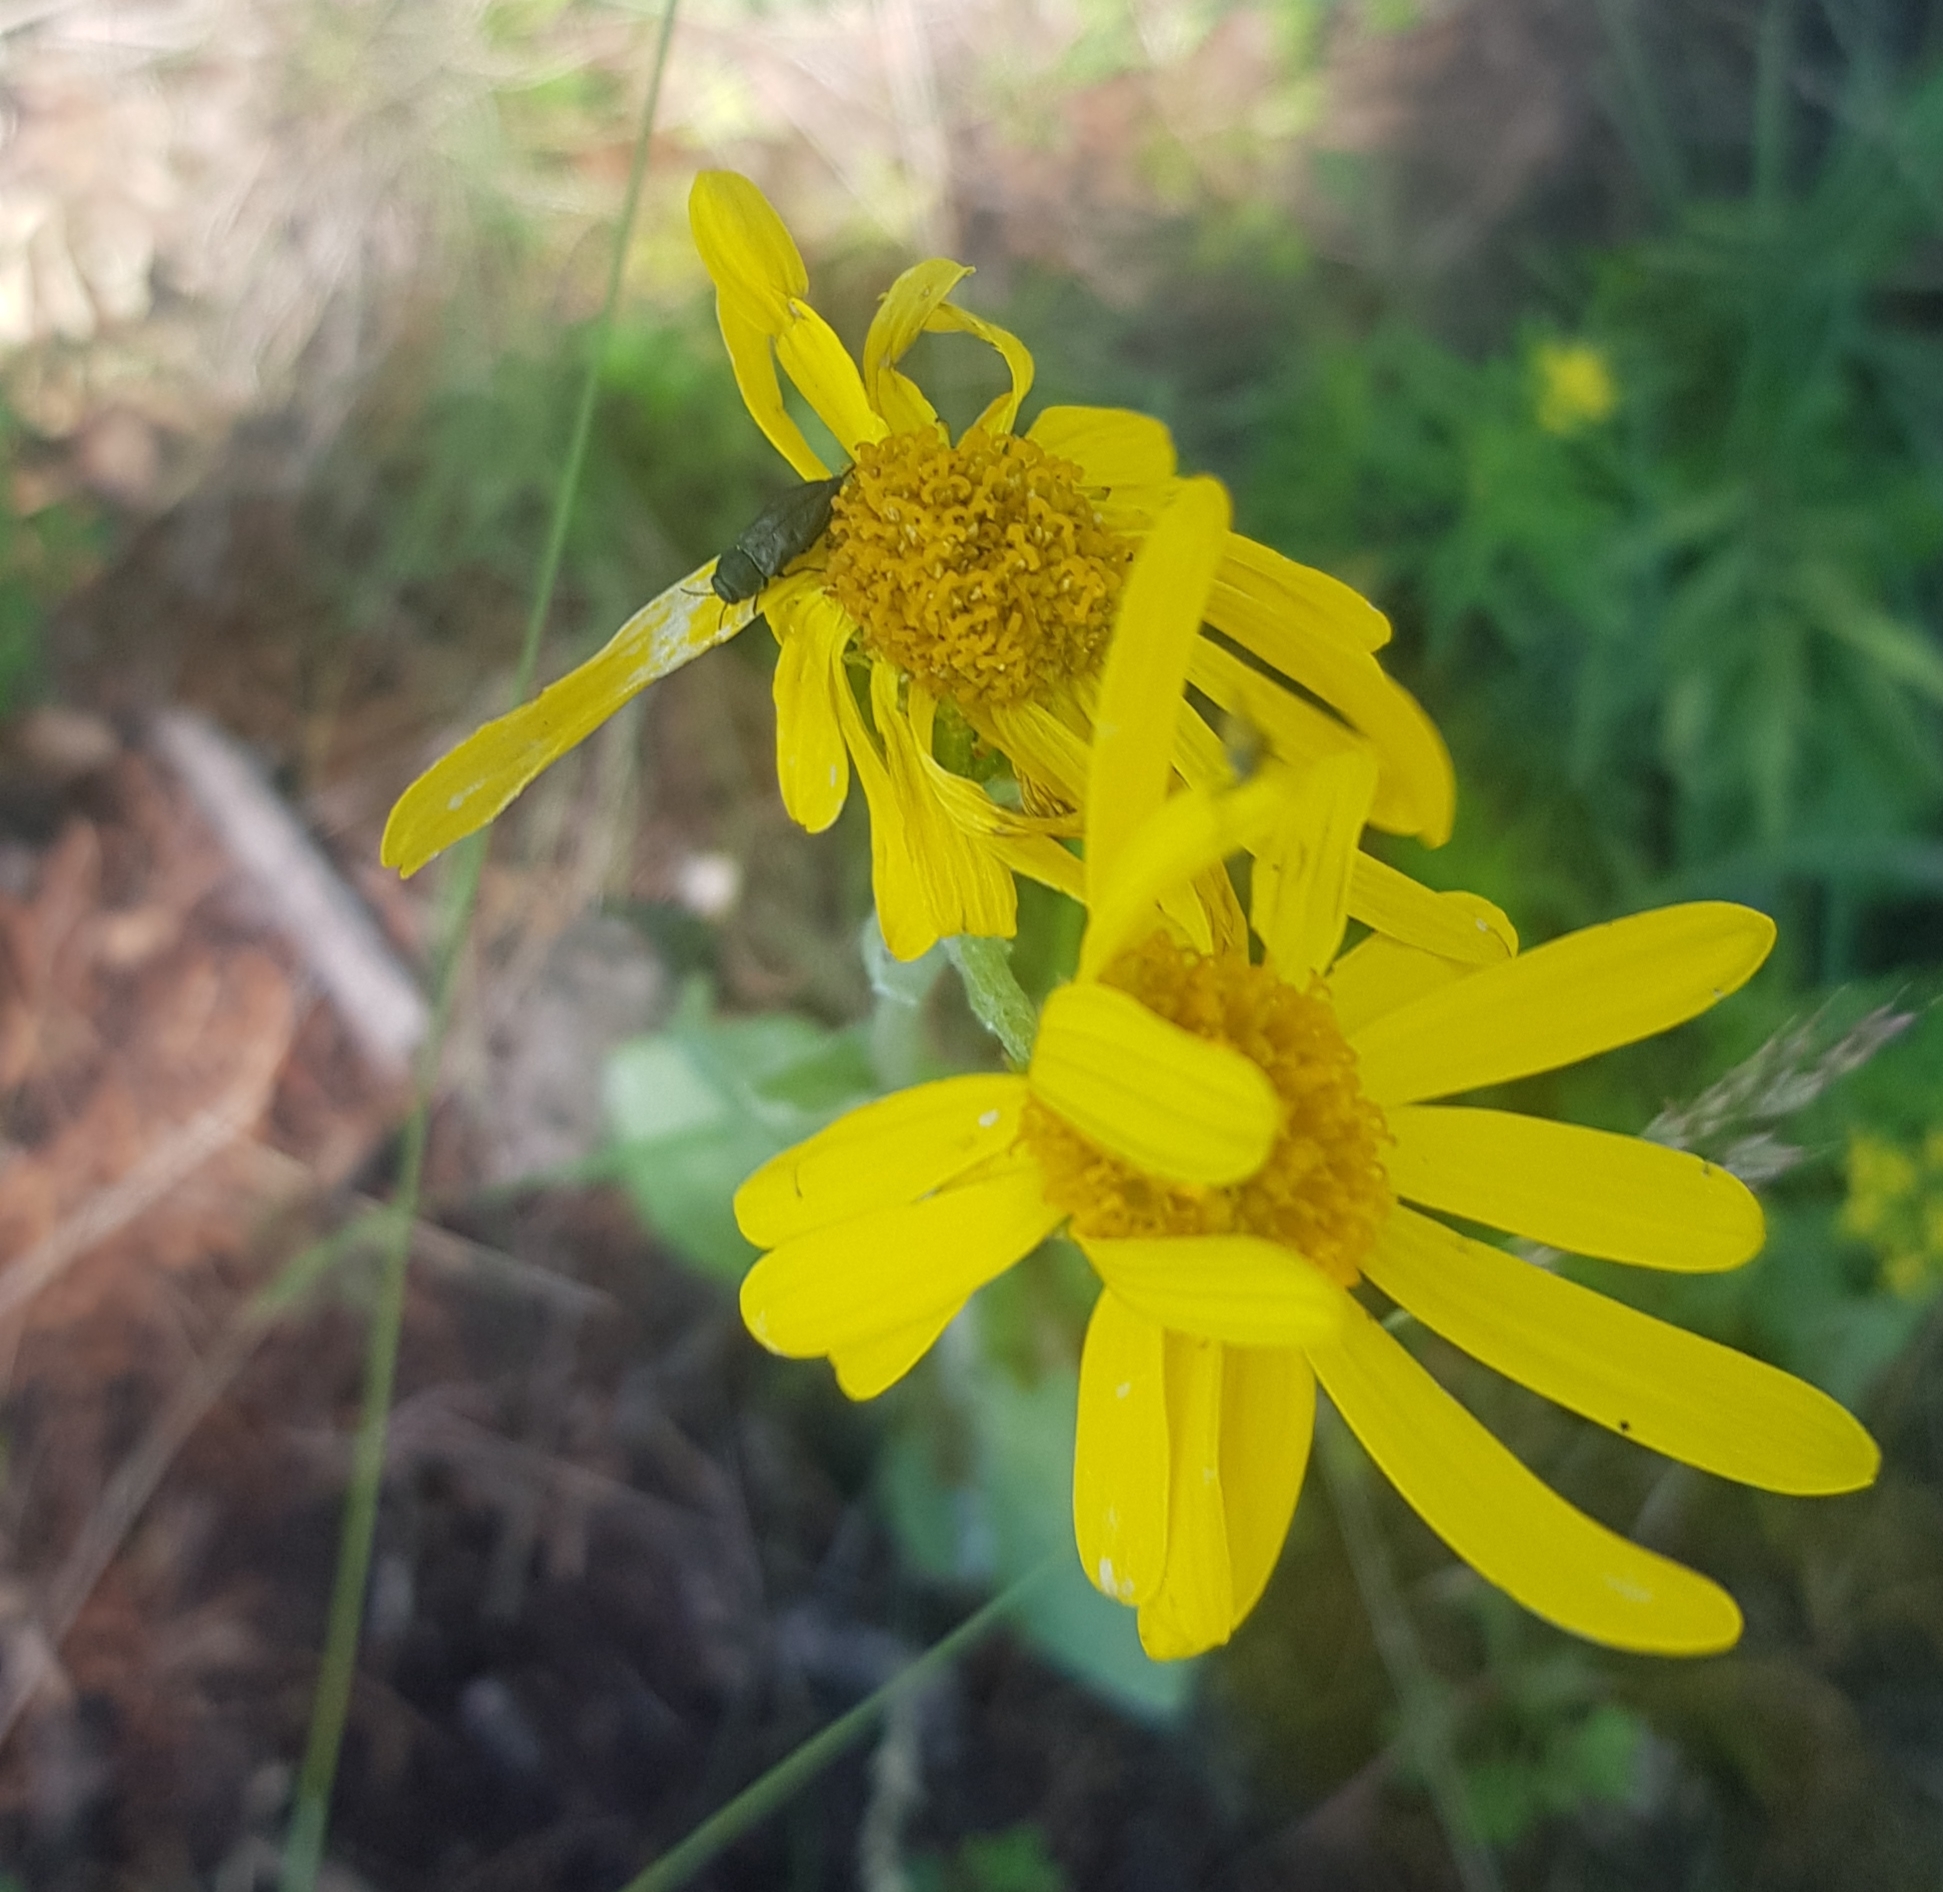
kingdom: Plantae
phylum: Tracheophyta
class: Magnoliopsida
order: Asterales
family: Asteraceae
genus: Tephroseris
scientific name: Tephroseris integrifolia
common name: Field fleawort
